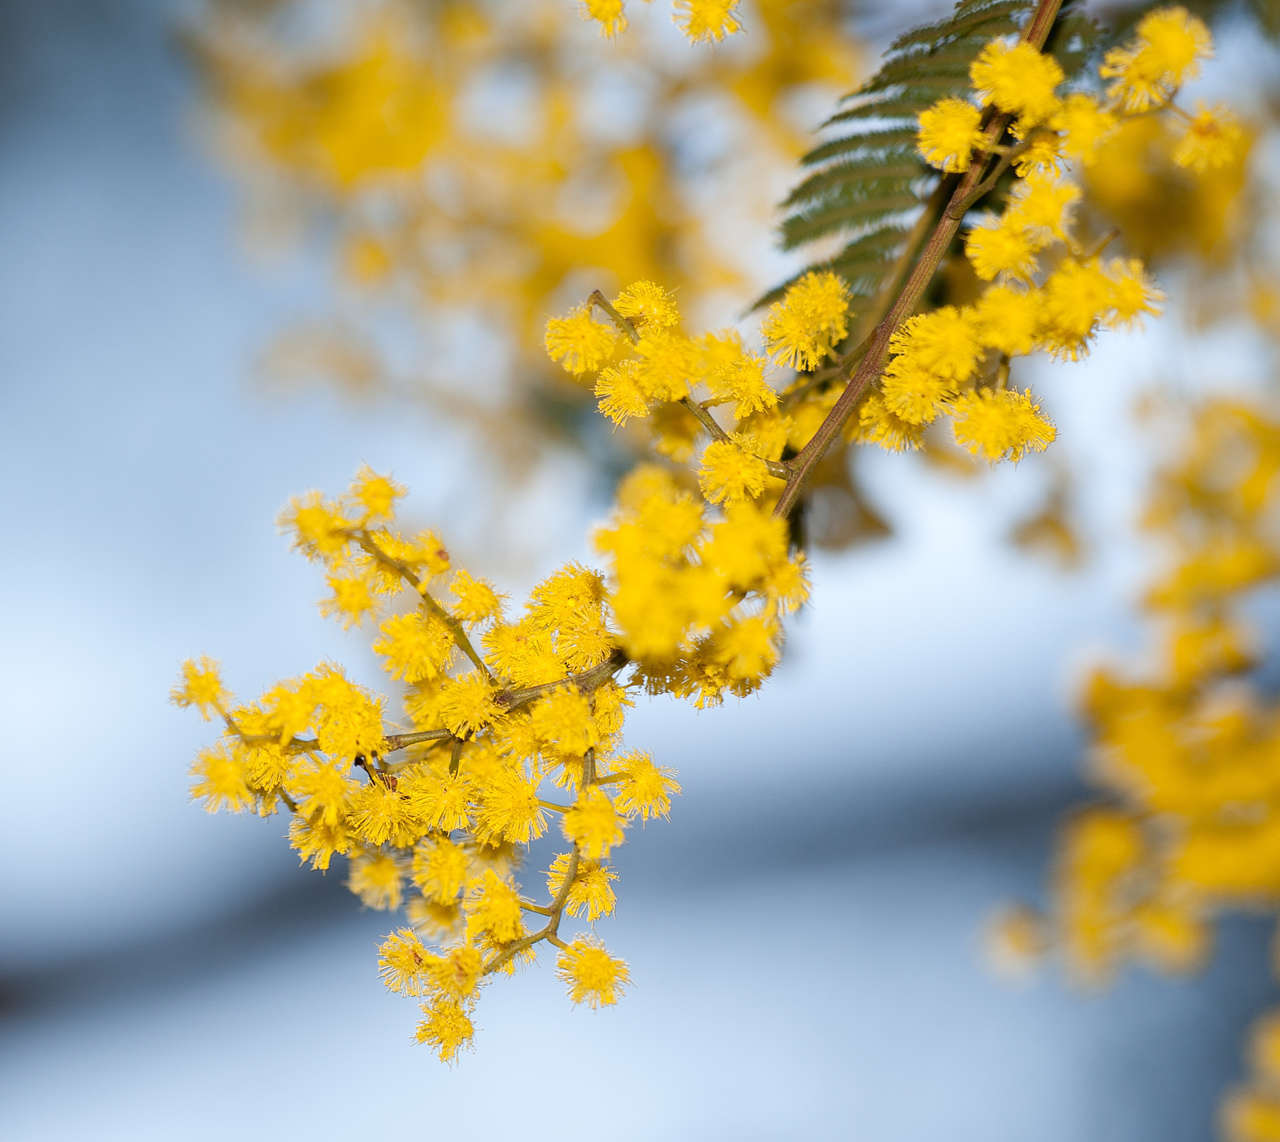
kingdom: Plantae
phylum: Tracheophyta
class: Magnoliopsida
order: Fabales
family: Fabaceae
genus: Acacia
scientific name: Acacia nanodealbata
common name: Dwarf silver-wattle
